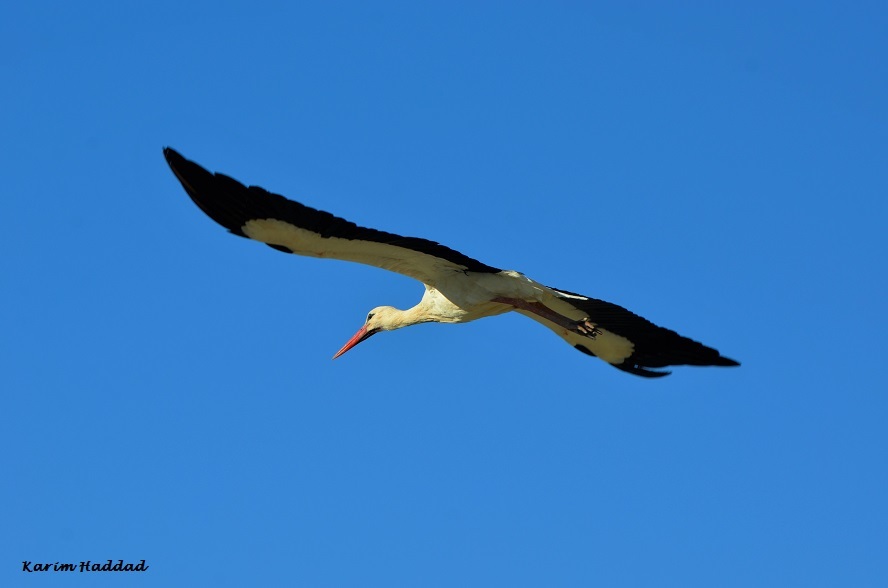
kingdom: Animalia
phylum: Chordata
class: Aves
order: Ciconiiformes
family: Ciconiidae
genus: Ciconia
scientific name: Ciconia ciconia
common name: White stork
